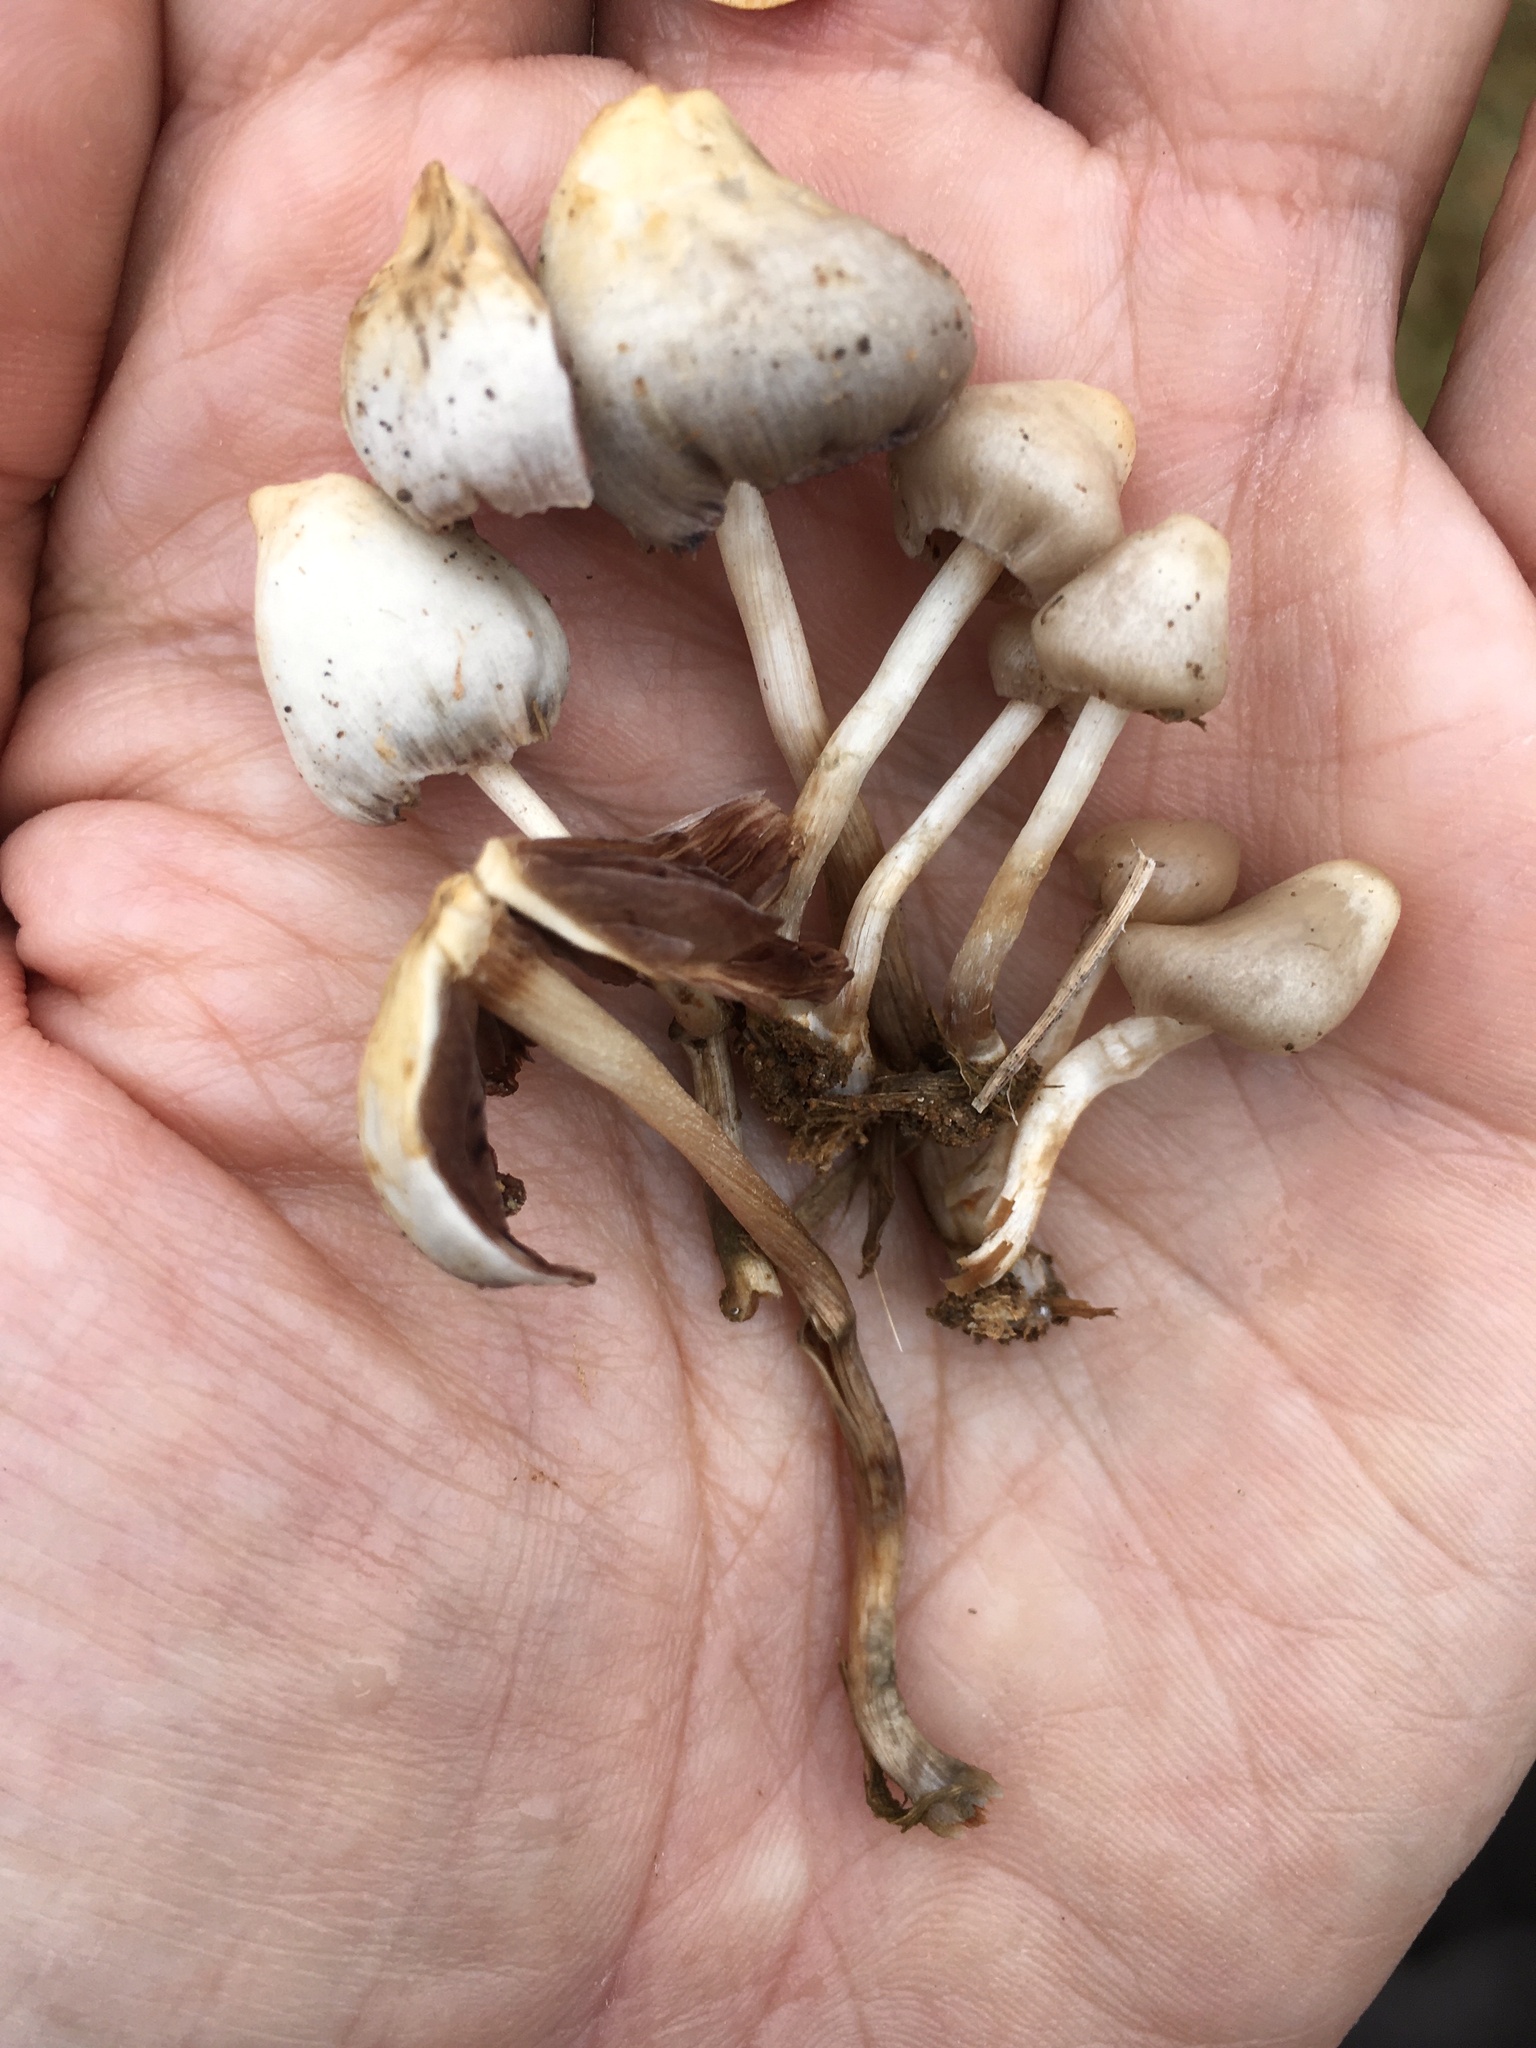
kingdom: Fungi
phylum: Basidiomycota
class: Agaricomycetes
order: Agaricales
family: Hymenogastraceae
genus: Psilocybe
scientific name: Psilocybe semilanceata
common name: Liberty cap
